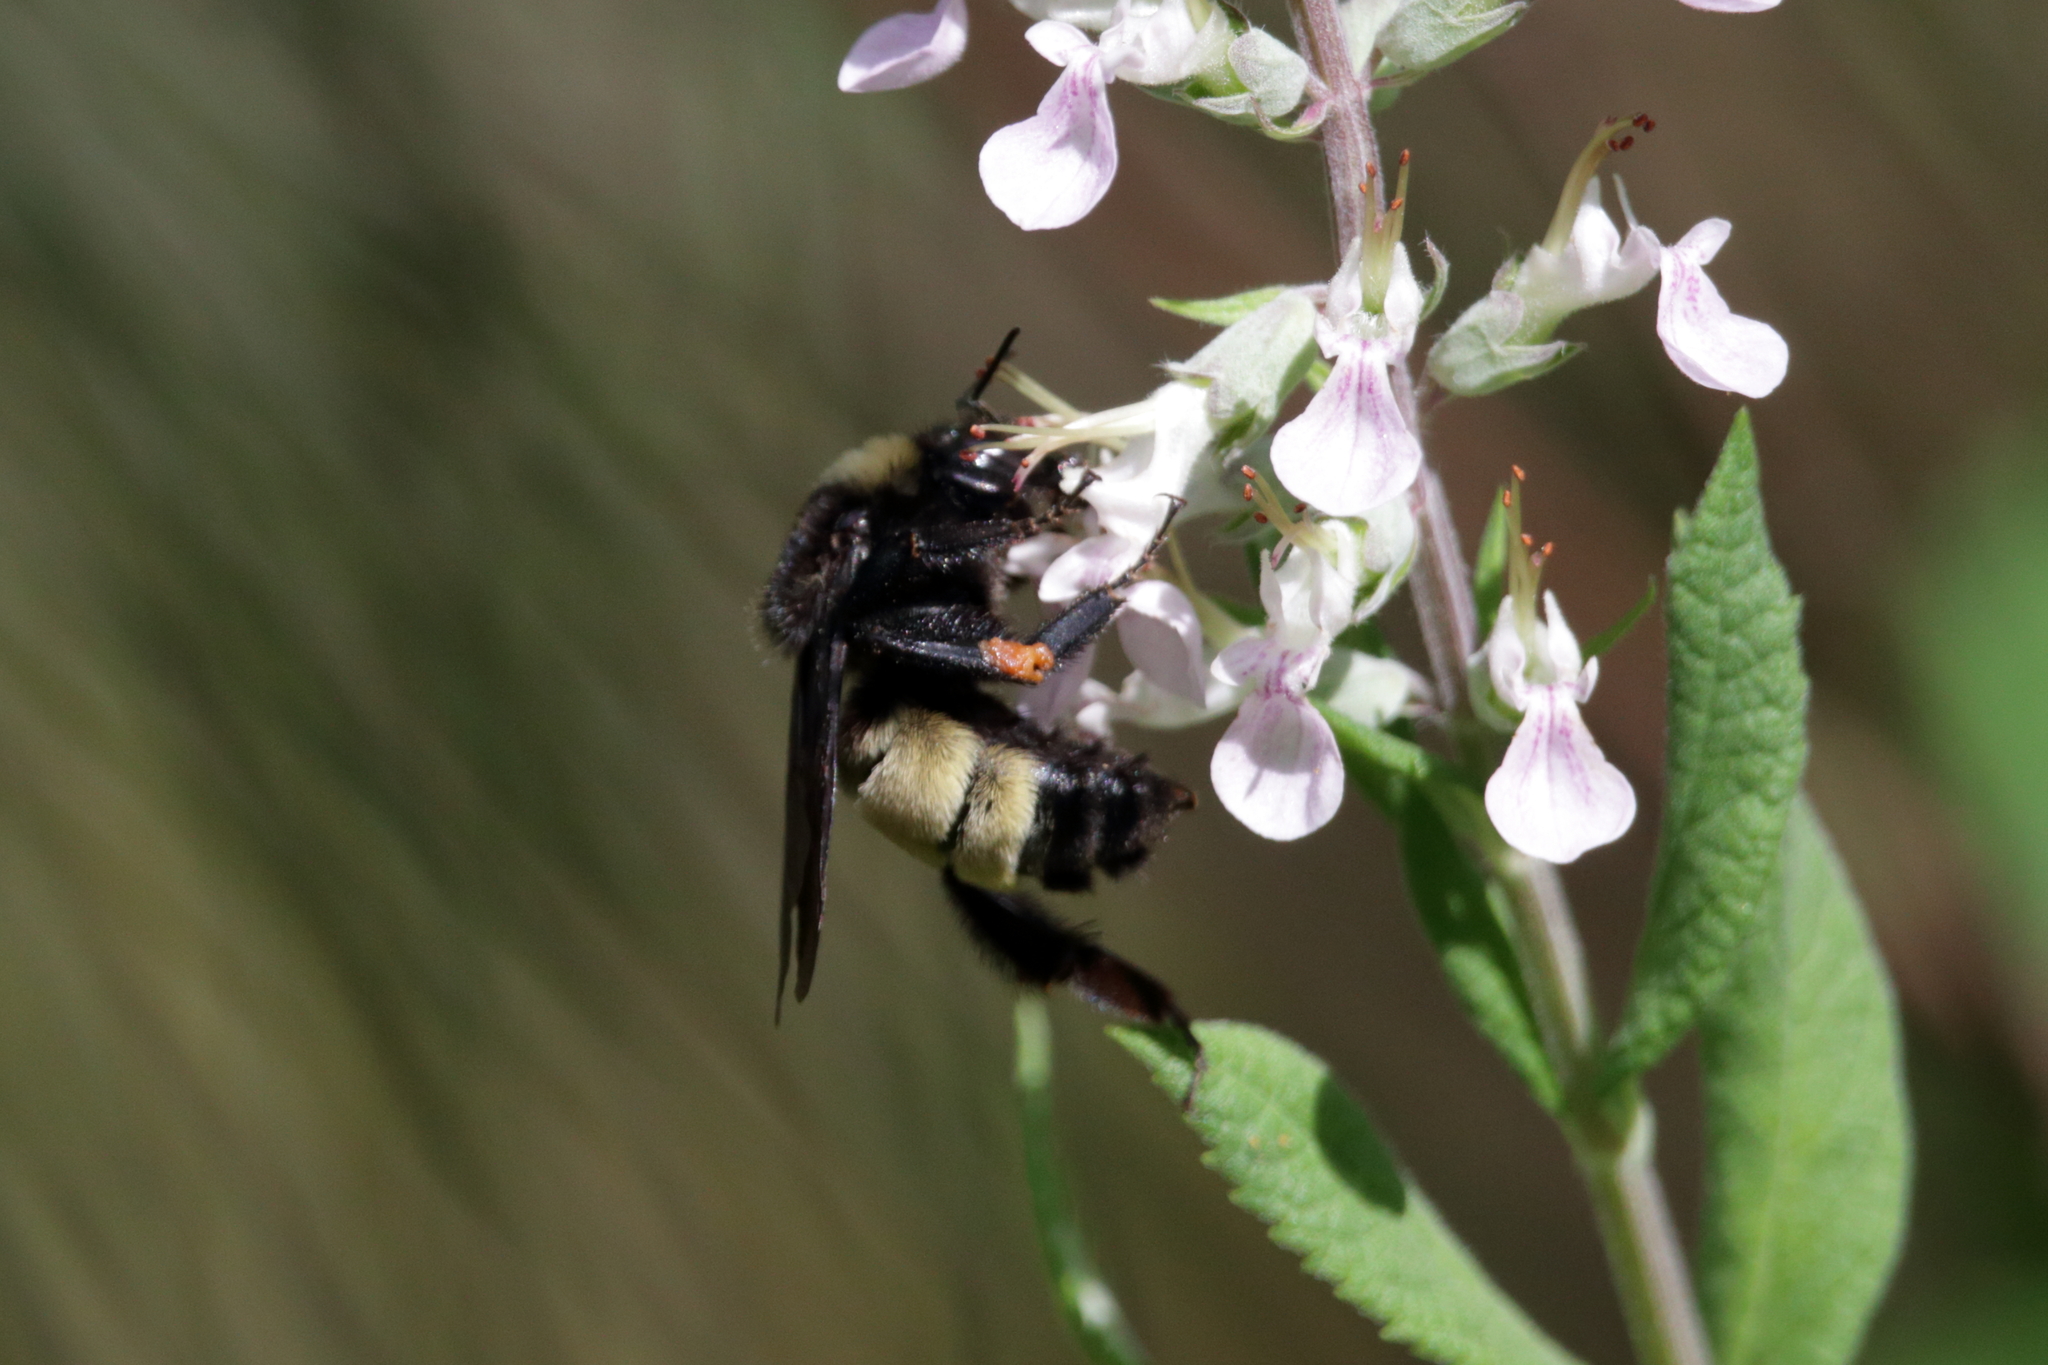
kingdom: Animalia
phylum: Arthropoda
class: Insecta
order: Hymenoptera
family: Apidae
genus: Bombus
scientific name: Bombus pensylvanicus
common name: Bumble bee
